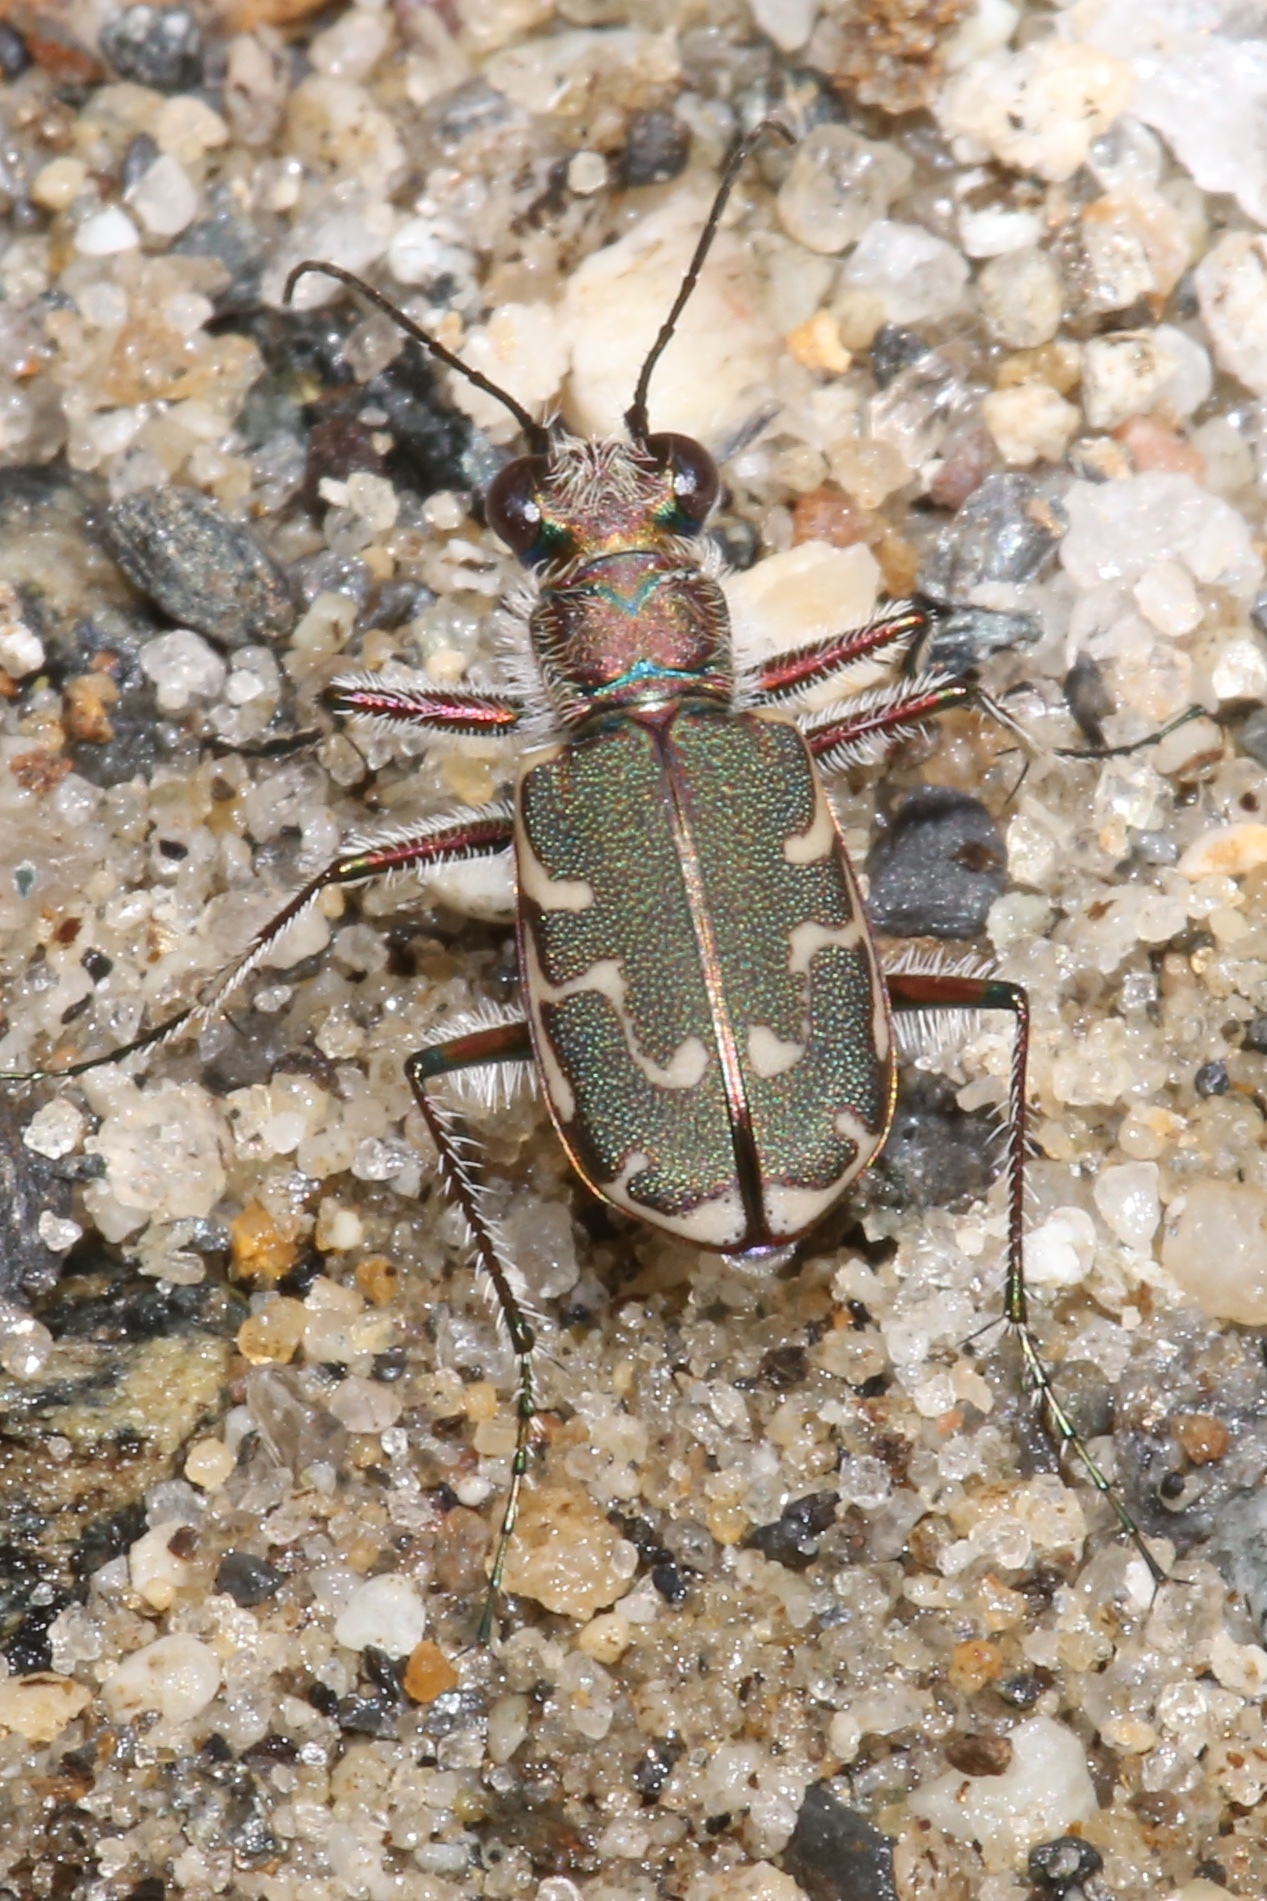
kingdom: Animalia
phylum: Arthropoda
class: Insecta
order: Coleoptera
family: Carabidae
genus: Cicindela
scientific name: Cicindela repanda
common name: Bronzed tiger beetle
